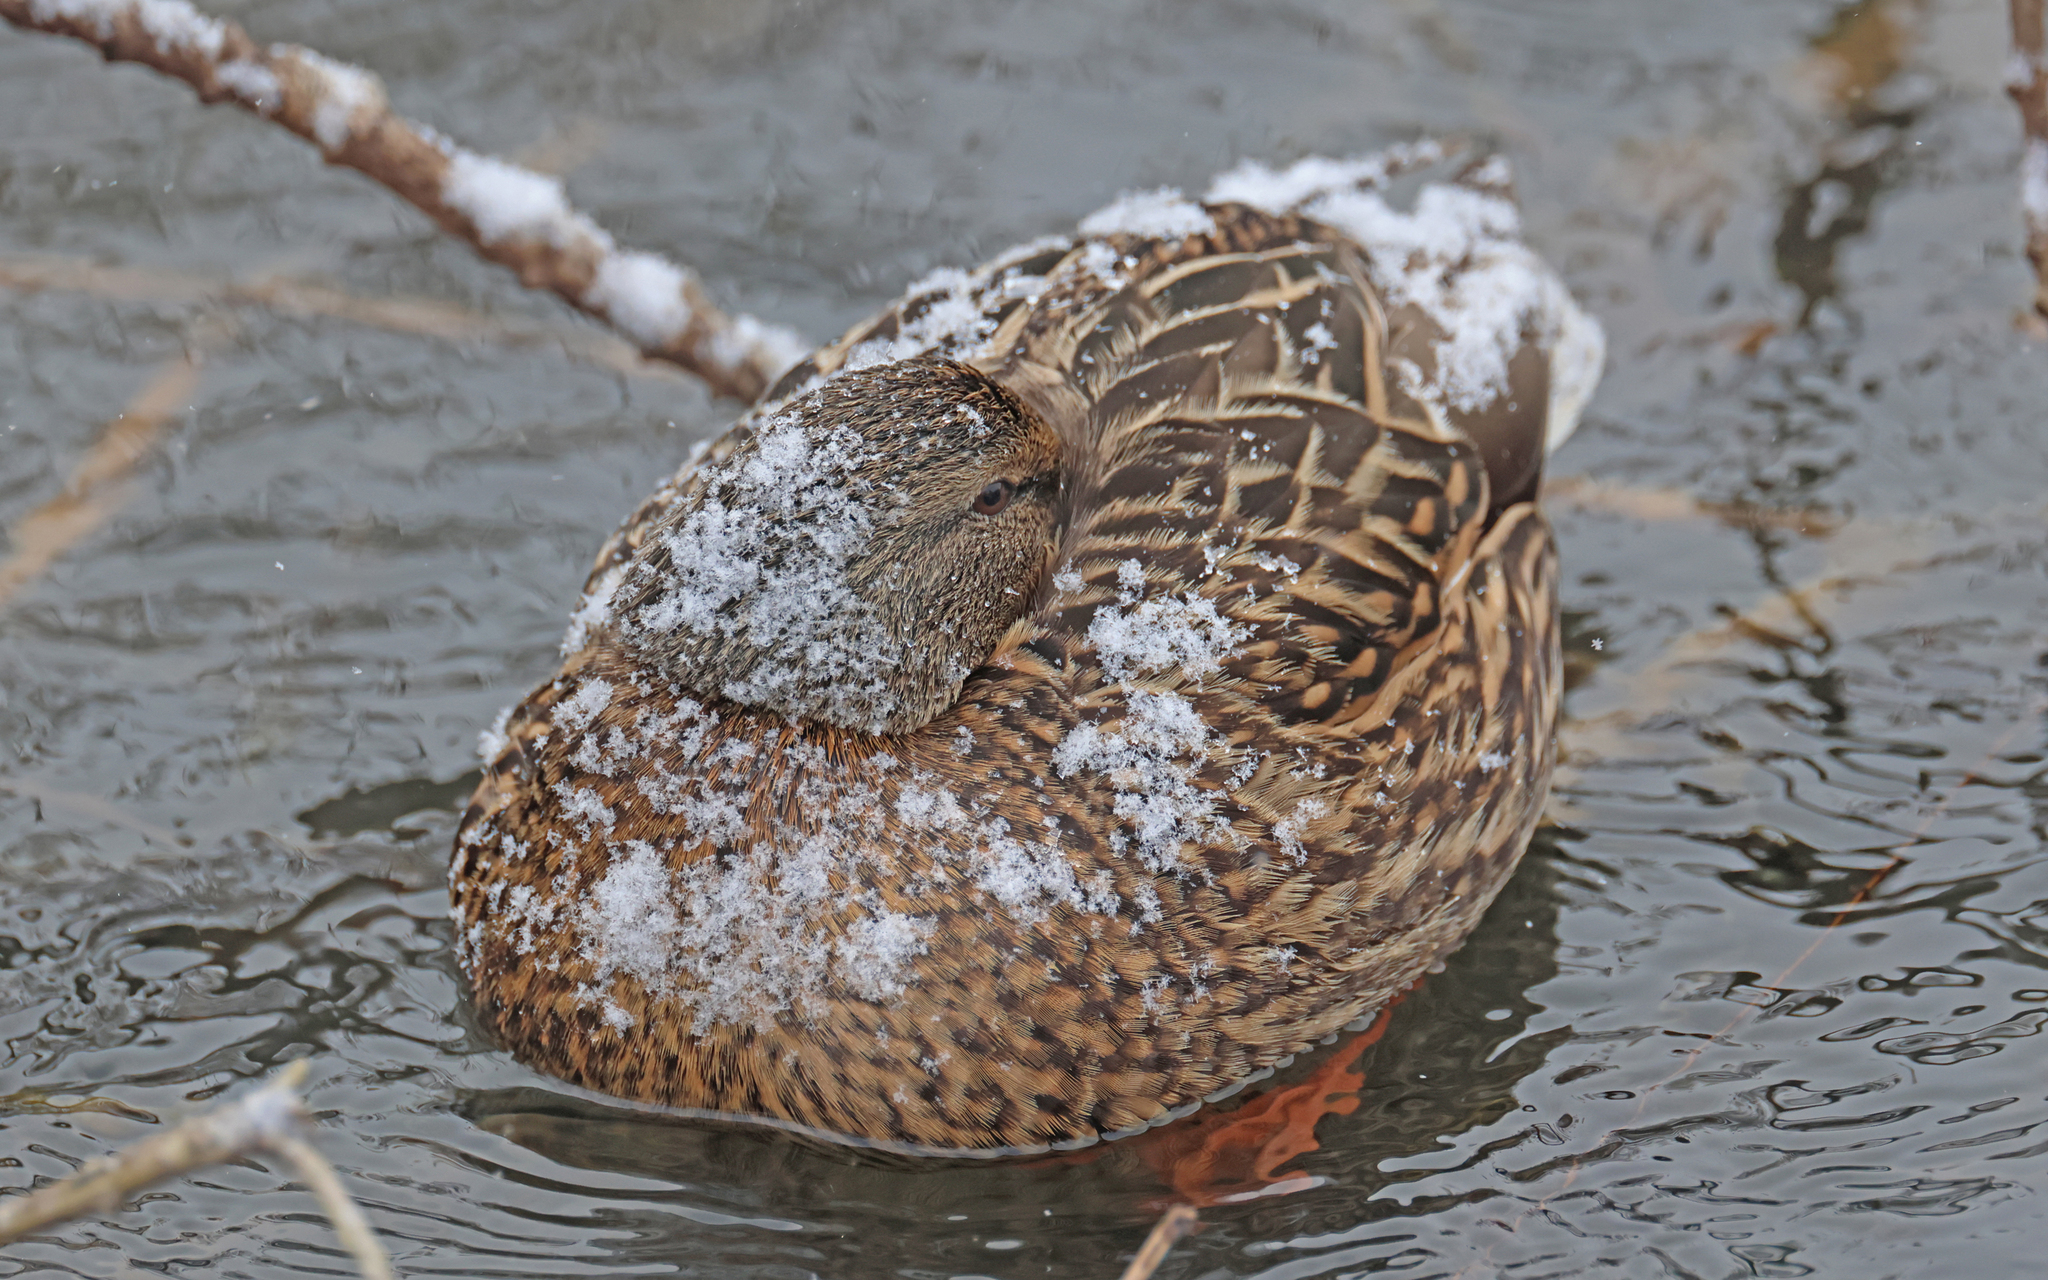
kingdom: Animalia
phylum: Chordata
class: Aves
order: Anseriformes
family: Anatidae
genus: Anas
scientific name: Anas platyrhynchos
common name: Mallard
